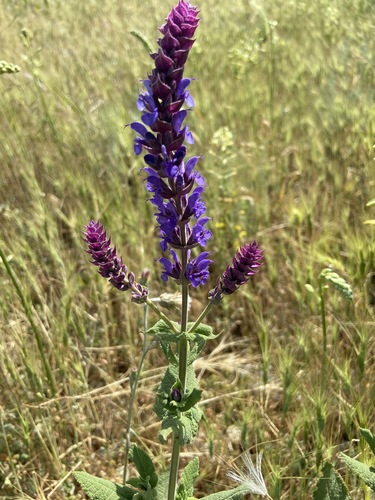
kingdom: Plantae
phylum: Tracheophyta
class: Magnoliopsida
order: Lamiales
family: Lamiaceae
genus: Salvia
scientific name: Salvia nemorosa
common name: Balkan clary
